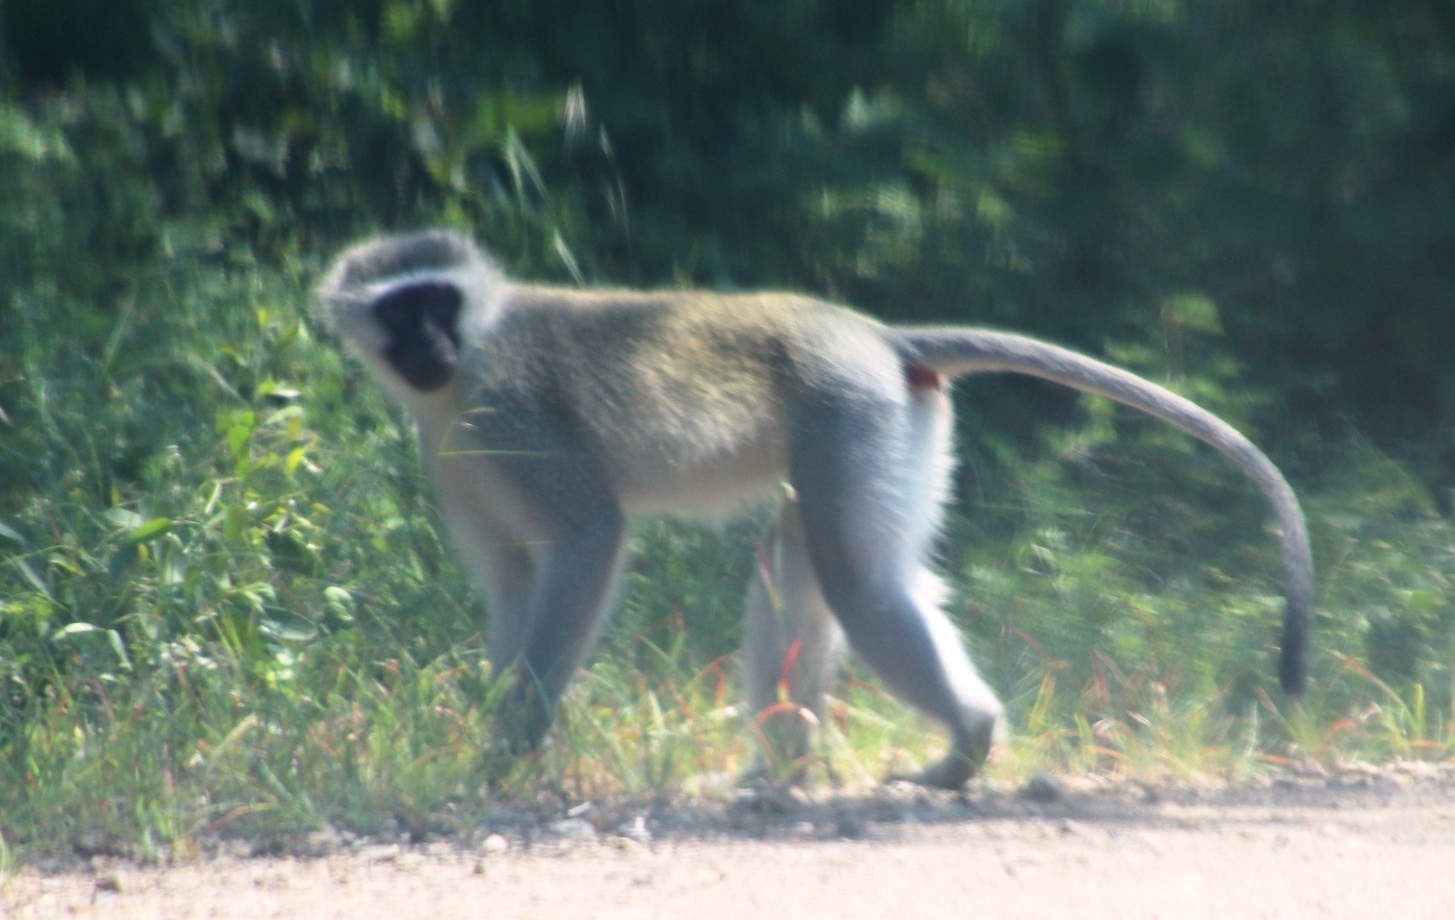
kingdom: Animalia
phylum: Chordata
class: Mammalia
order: Primates
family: Cercopithecidae
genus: Chlorocebus
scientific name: Chlorocebus pygerythrus
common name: Vervet monkey
